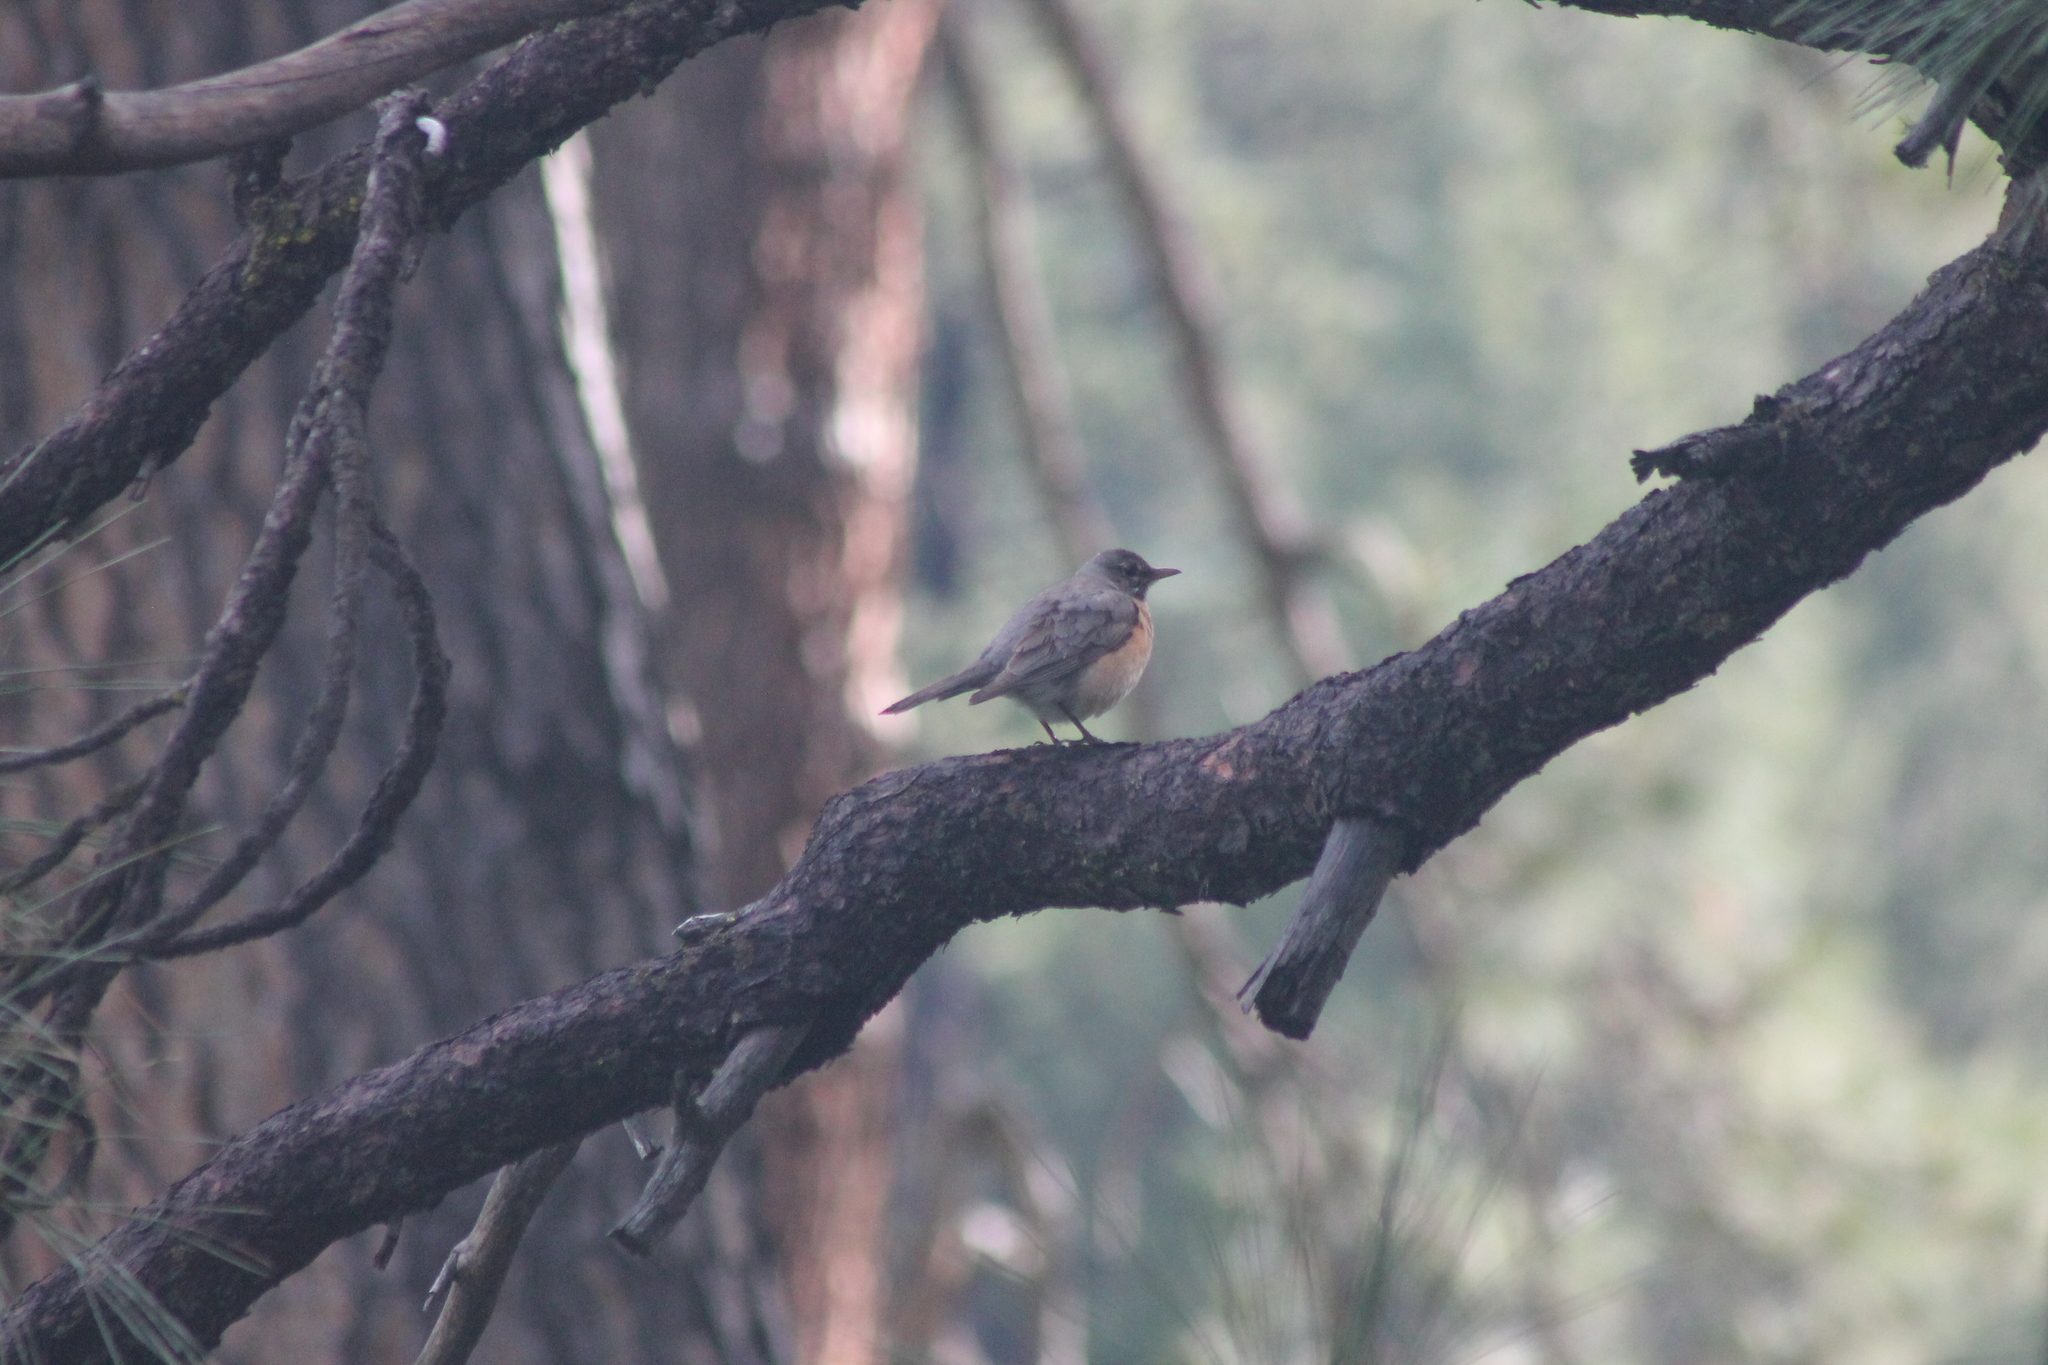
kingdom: Animalia
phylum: Chordata
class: Aves
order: Passeriformes
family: Turdidae
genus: Turdus
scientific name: Turdus migratorius
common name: American robin
